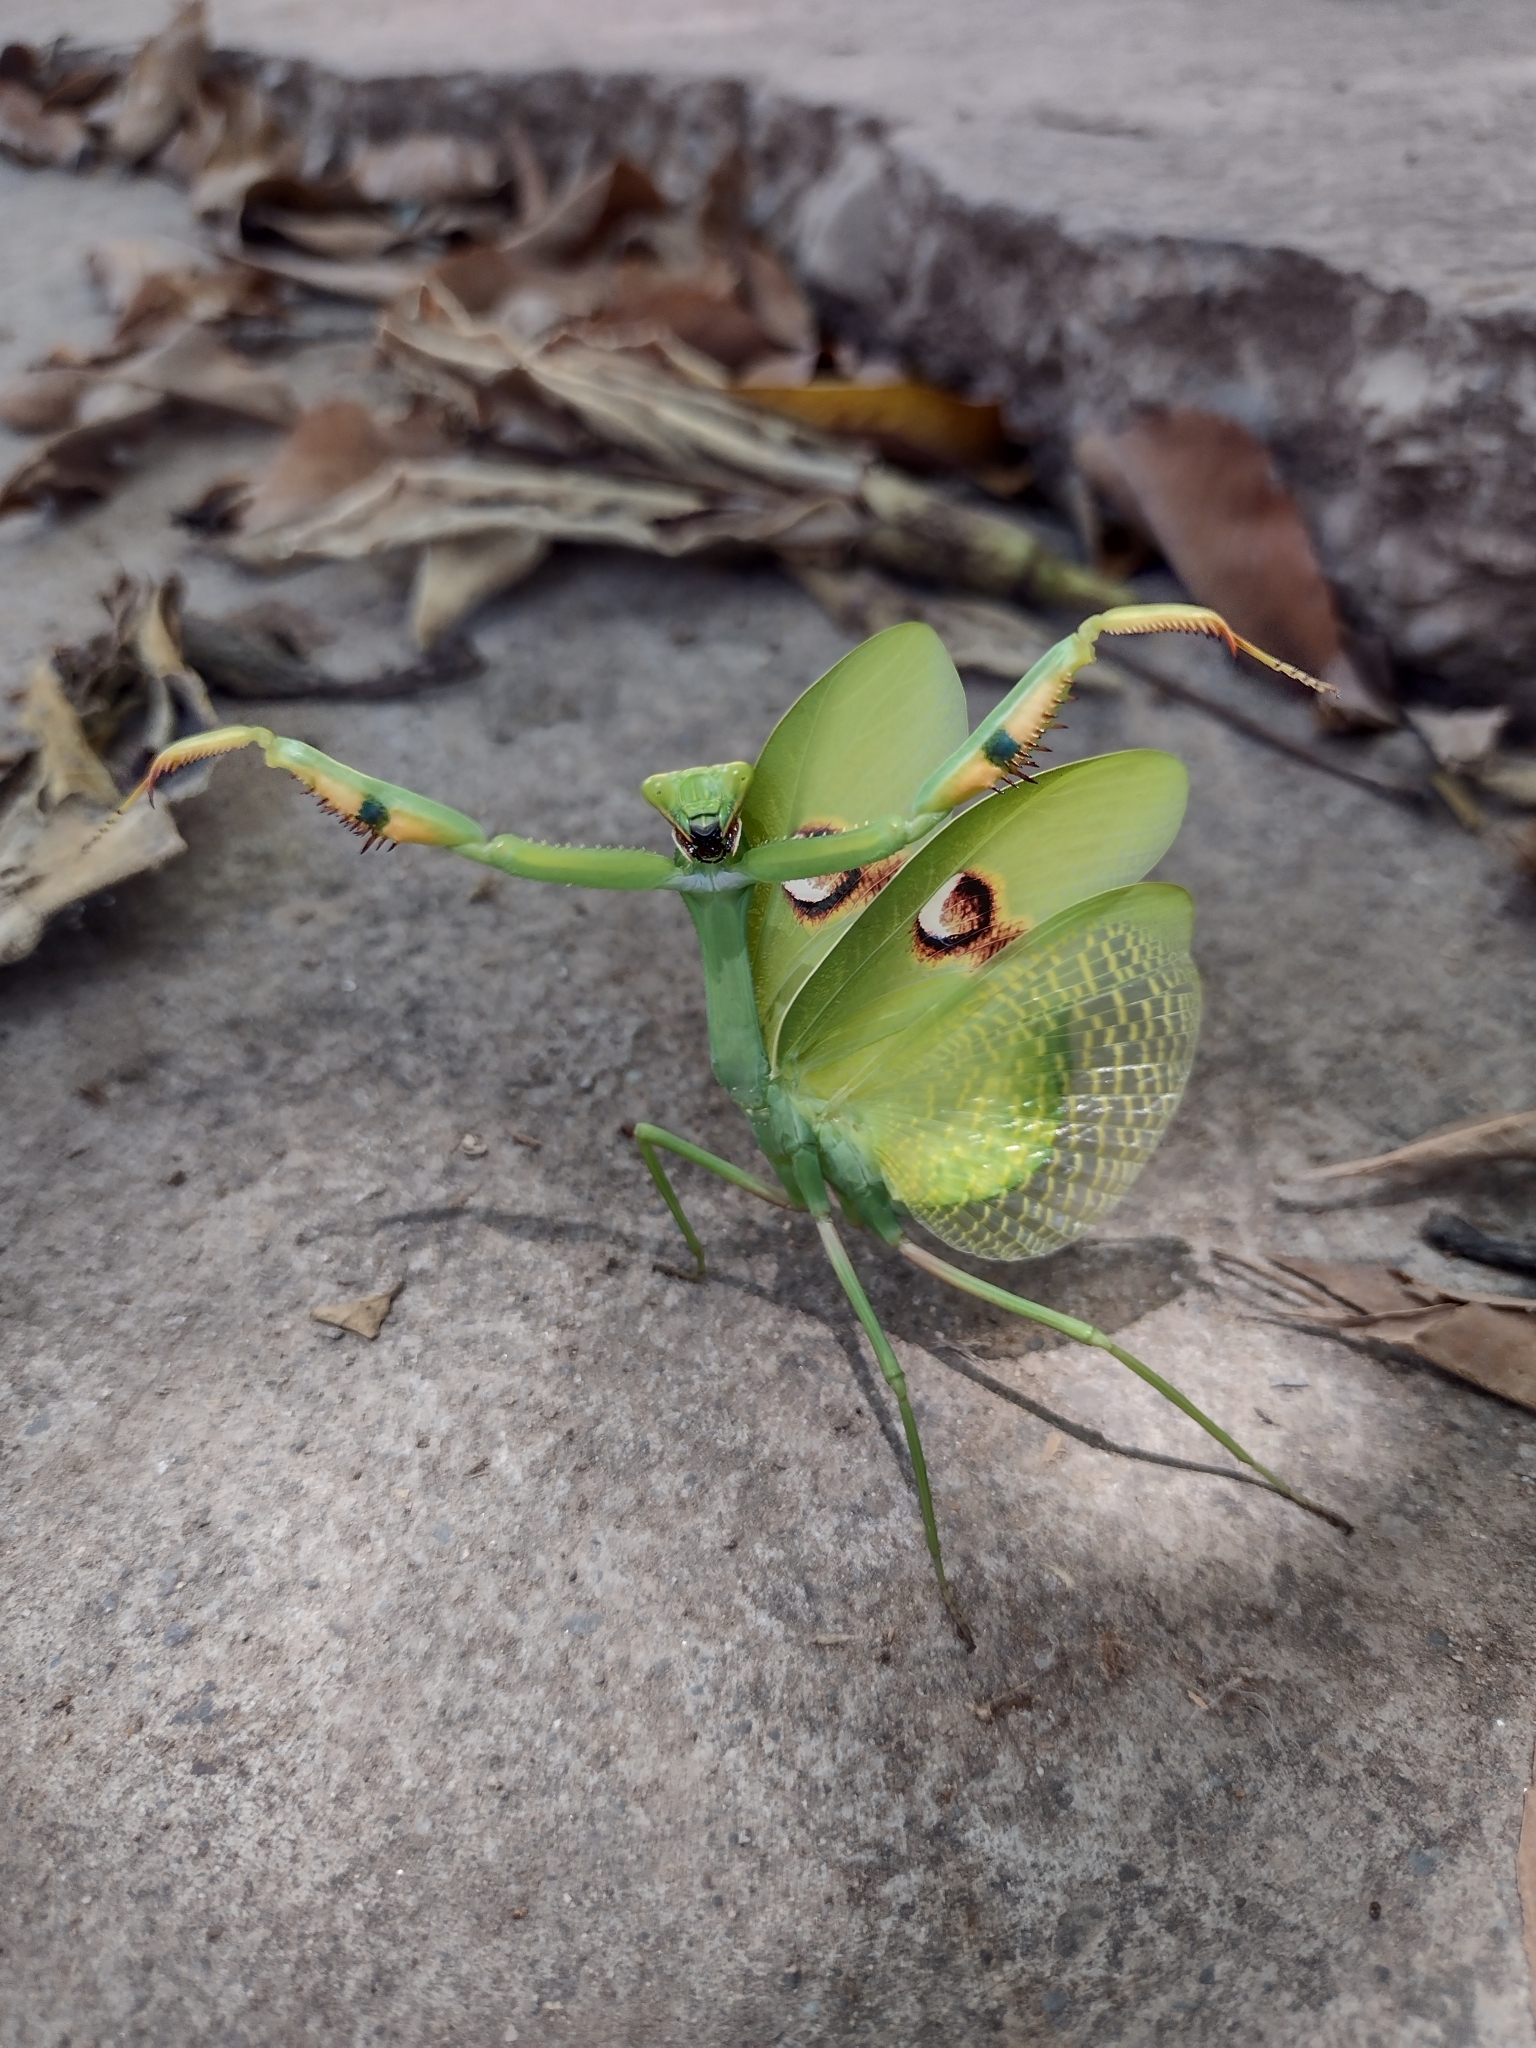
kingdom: Animalia
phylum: Arthropoda
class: Insecta
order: Mantodea
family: Mantidae
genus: Stagmatoptera
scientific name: Stagmatoptera hyaloptera
